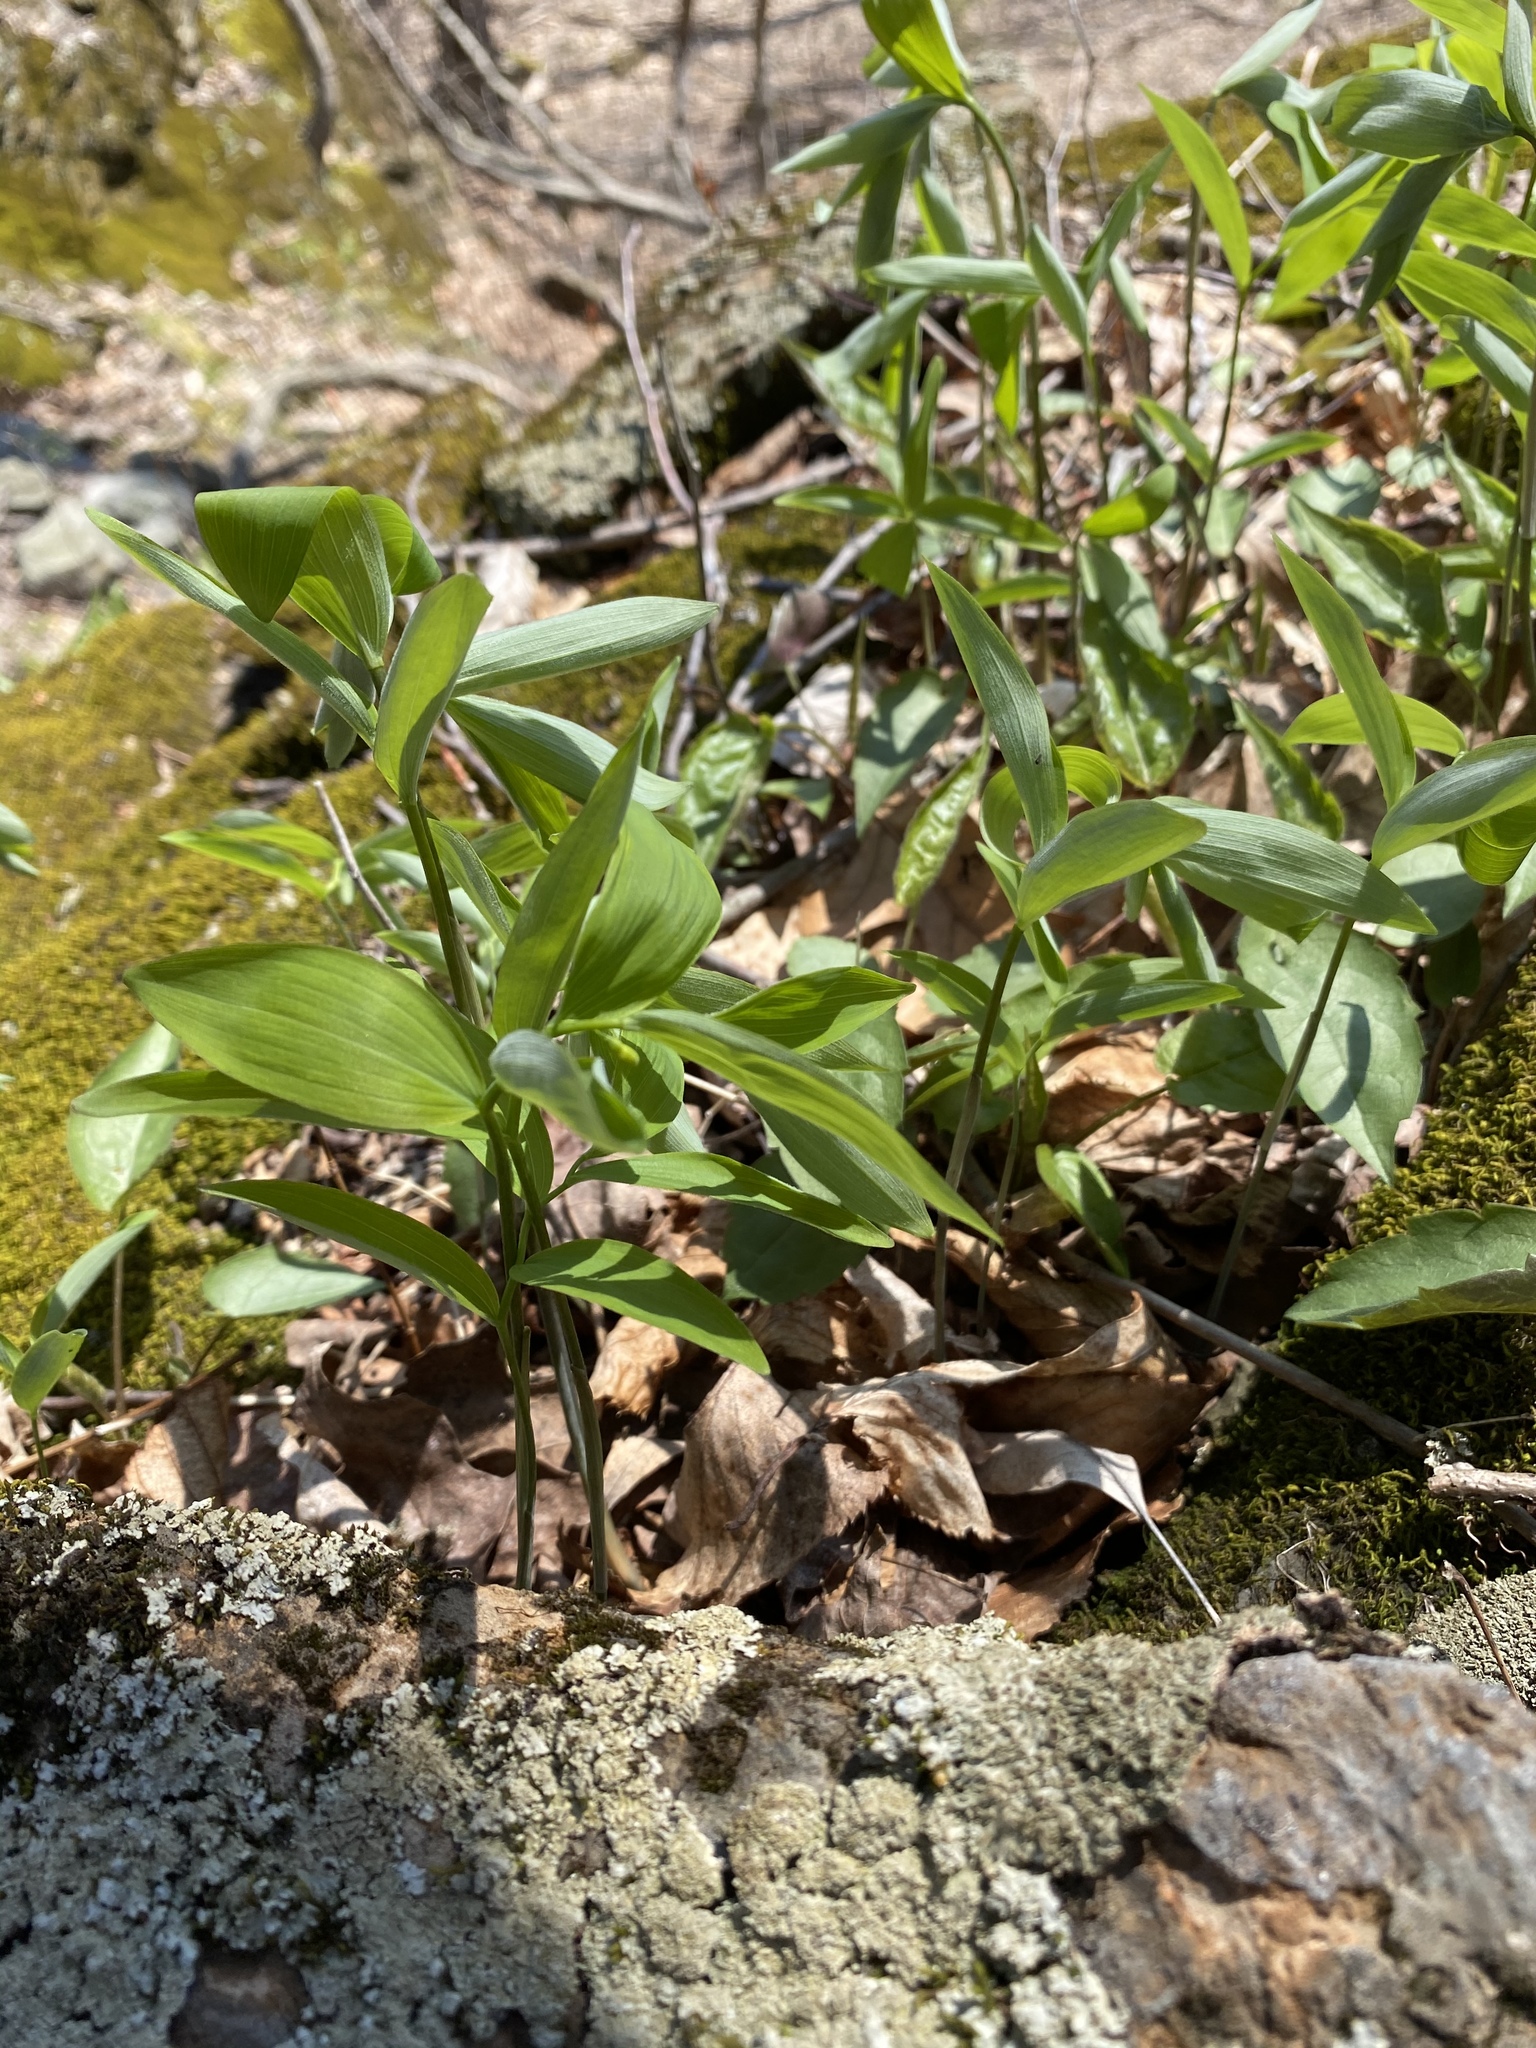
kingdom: Plantae
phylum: Tracheophyta
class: Liliopsida
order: Asparagales
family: Asparagaceae
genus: Polygonatum
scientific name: Polygonatum pubescens
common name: Downy solomon's seal
